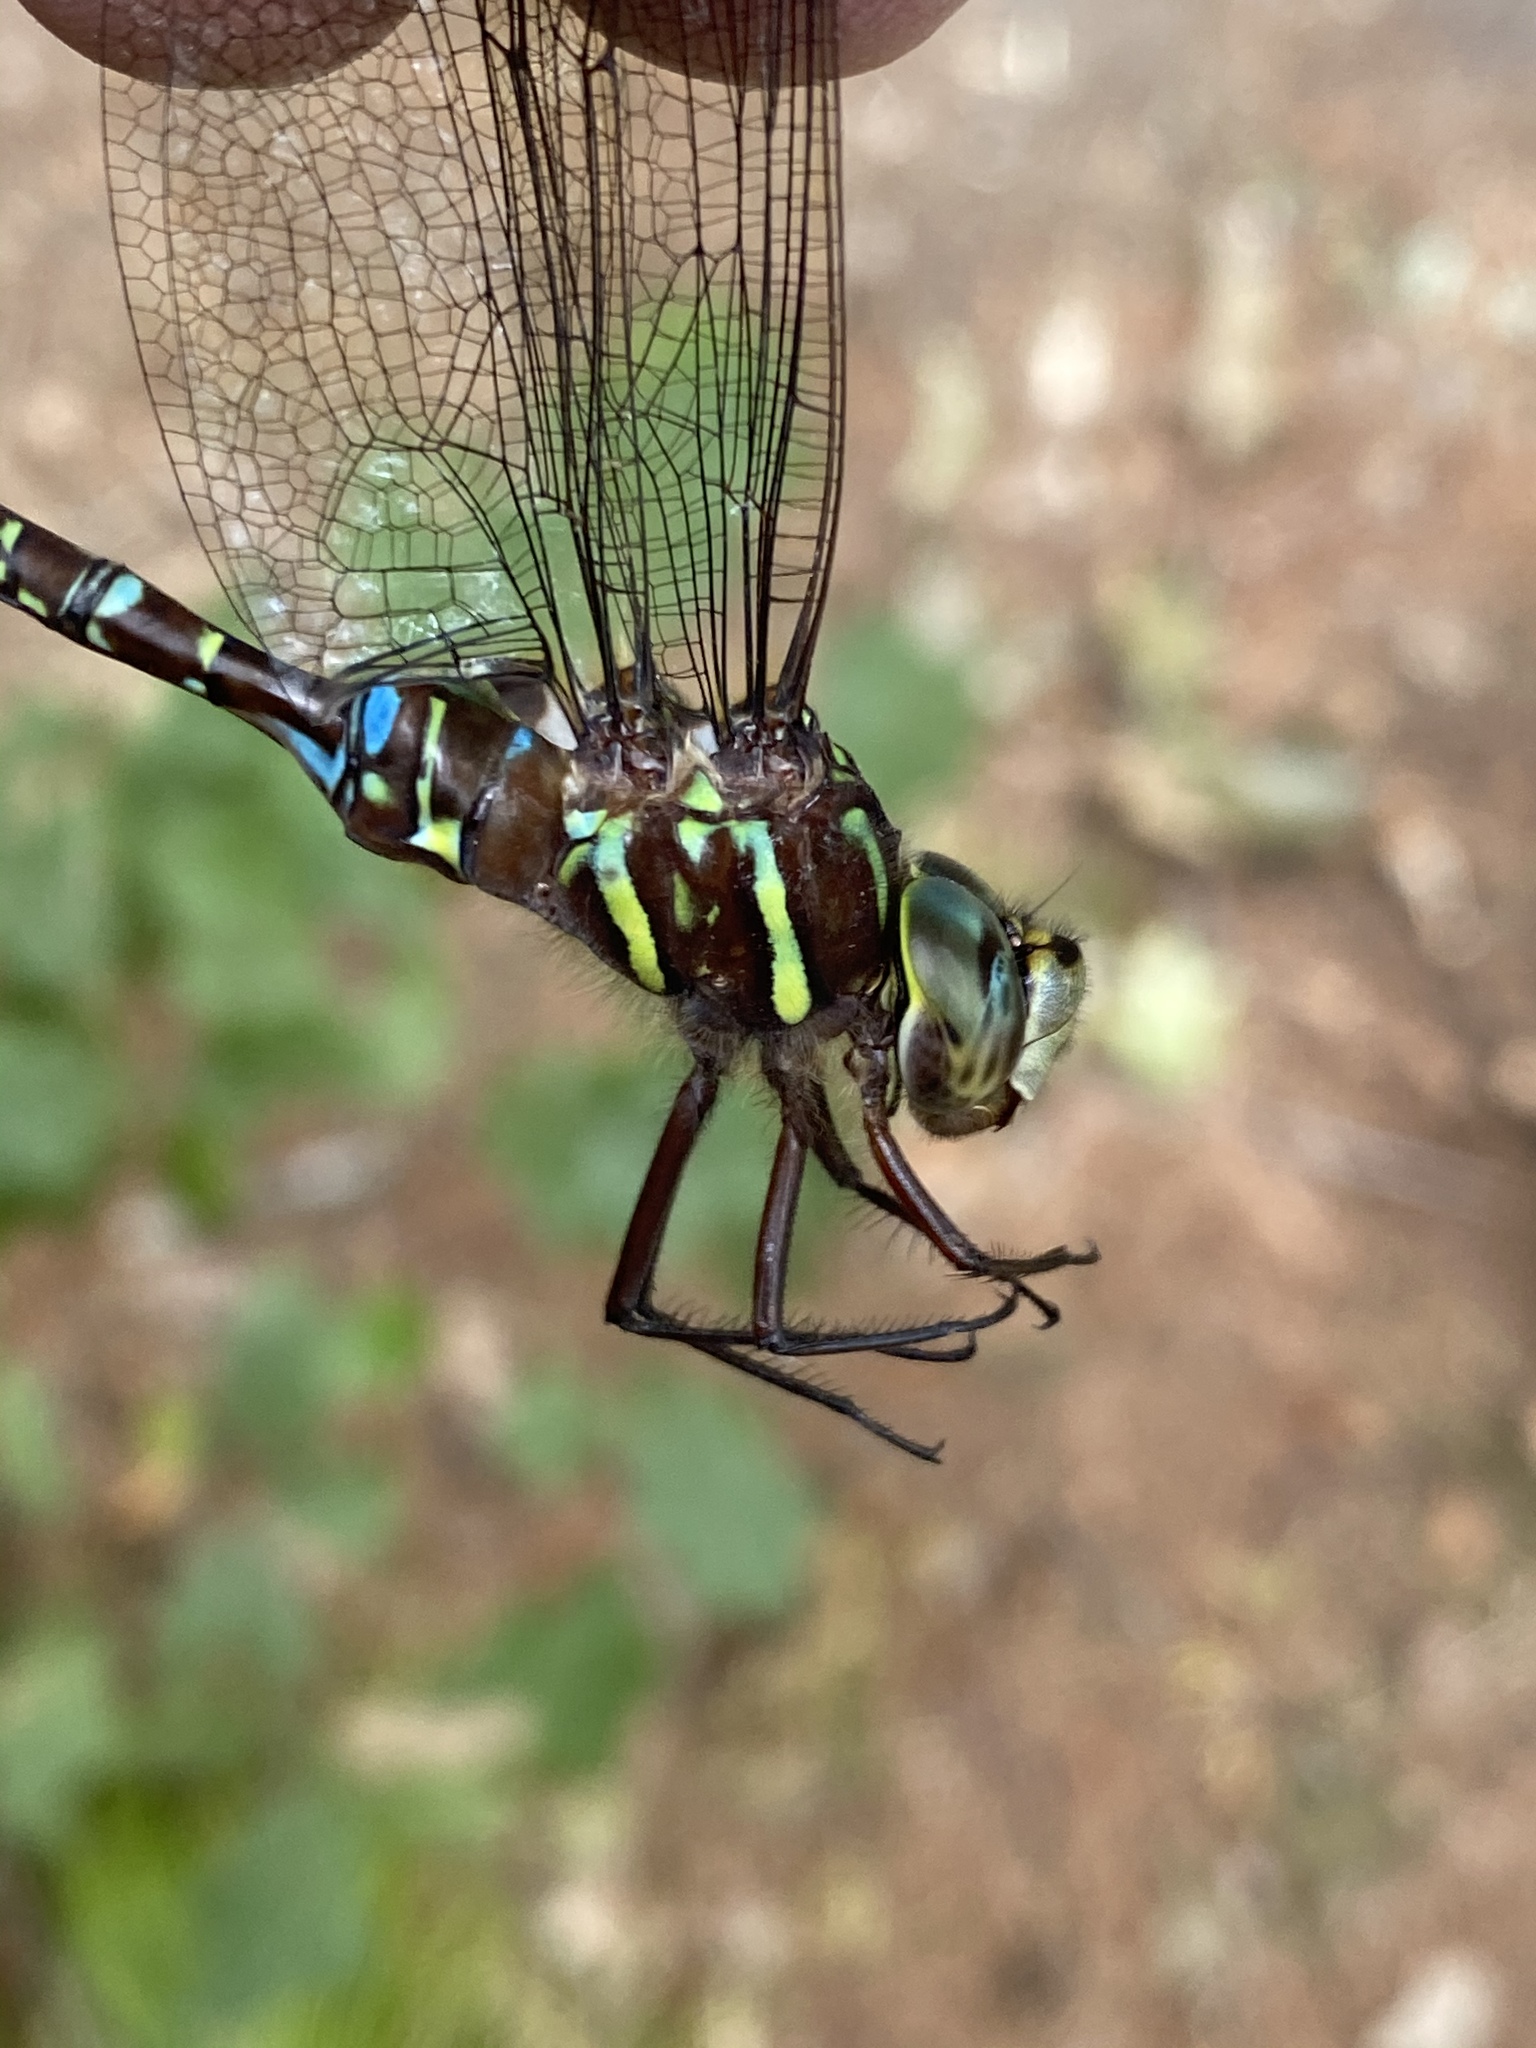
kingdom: Animalia
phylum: Arthropoda
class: Insecta
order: Odonata
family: Aeshnidae
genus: Aeshna
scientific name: Aeshna umbrosa
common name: Shadow darner
